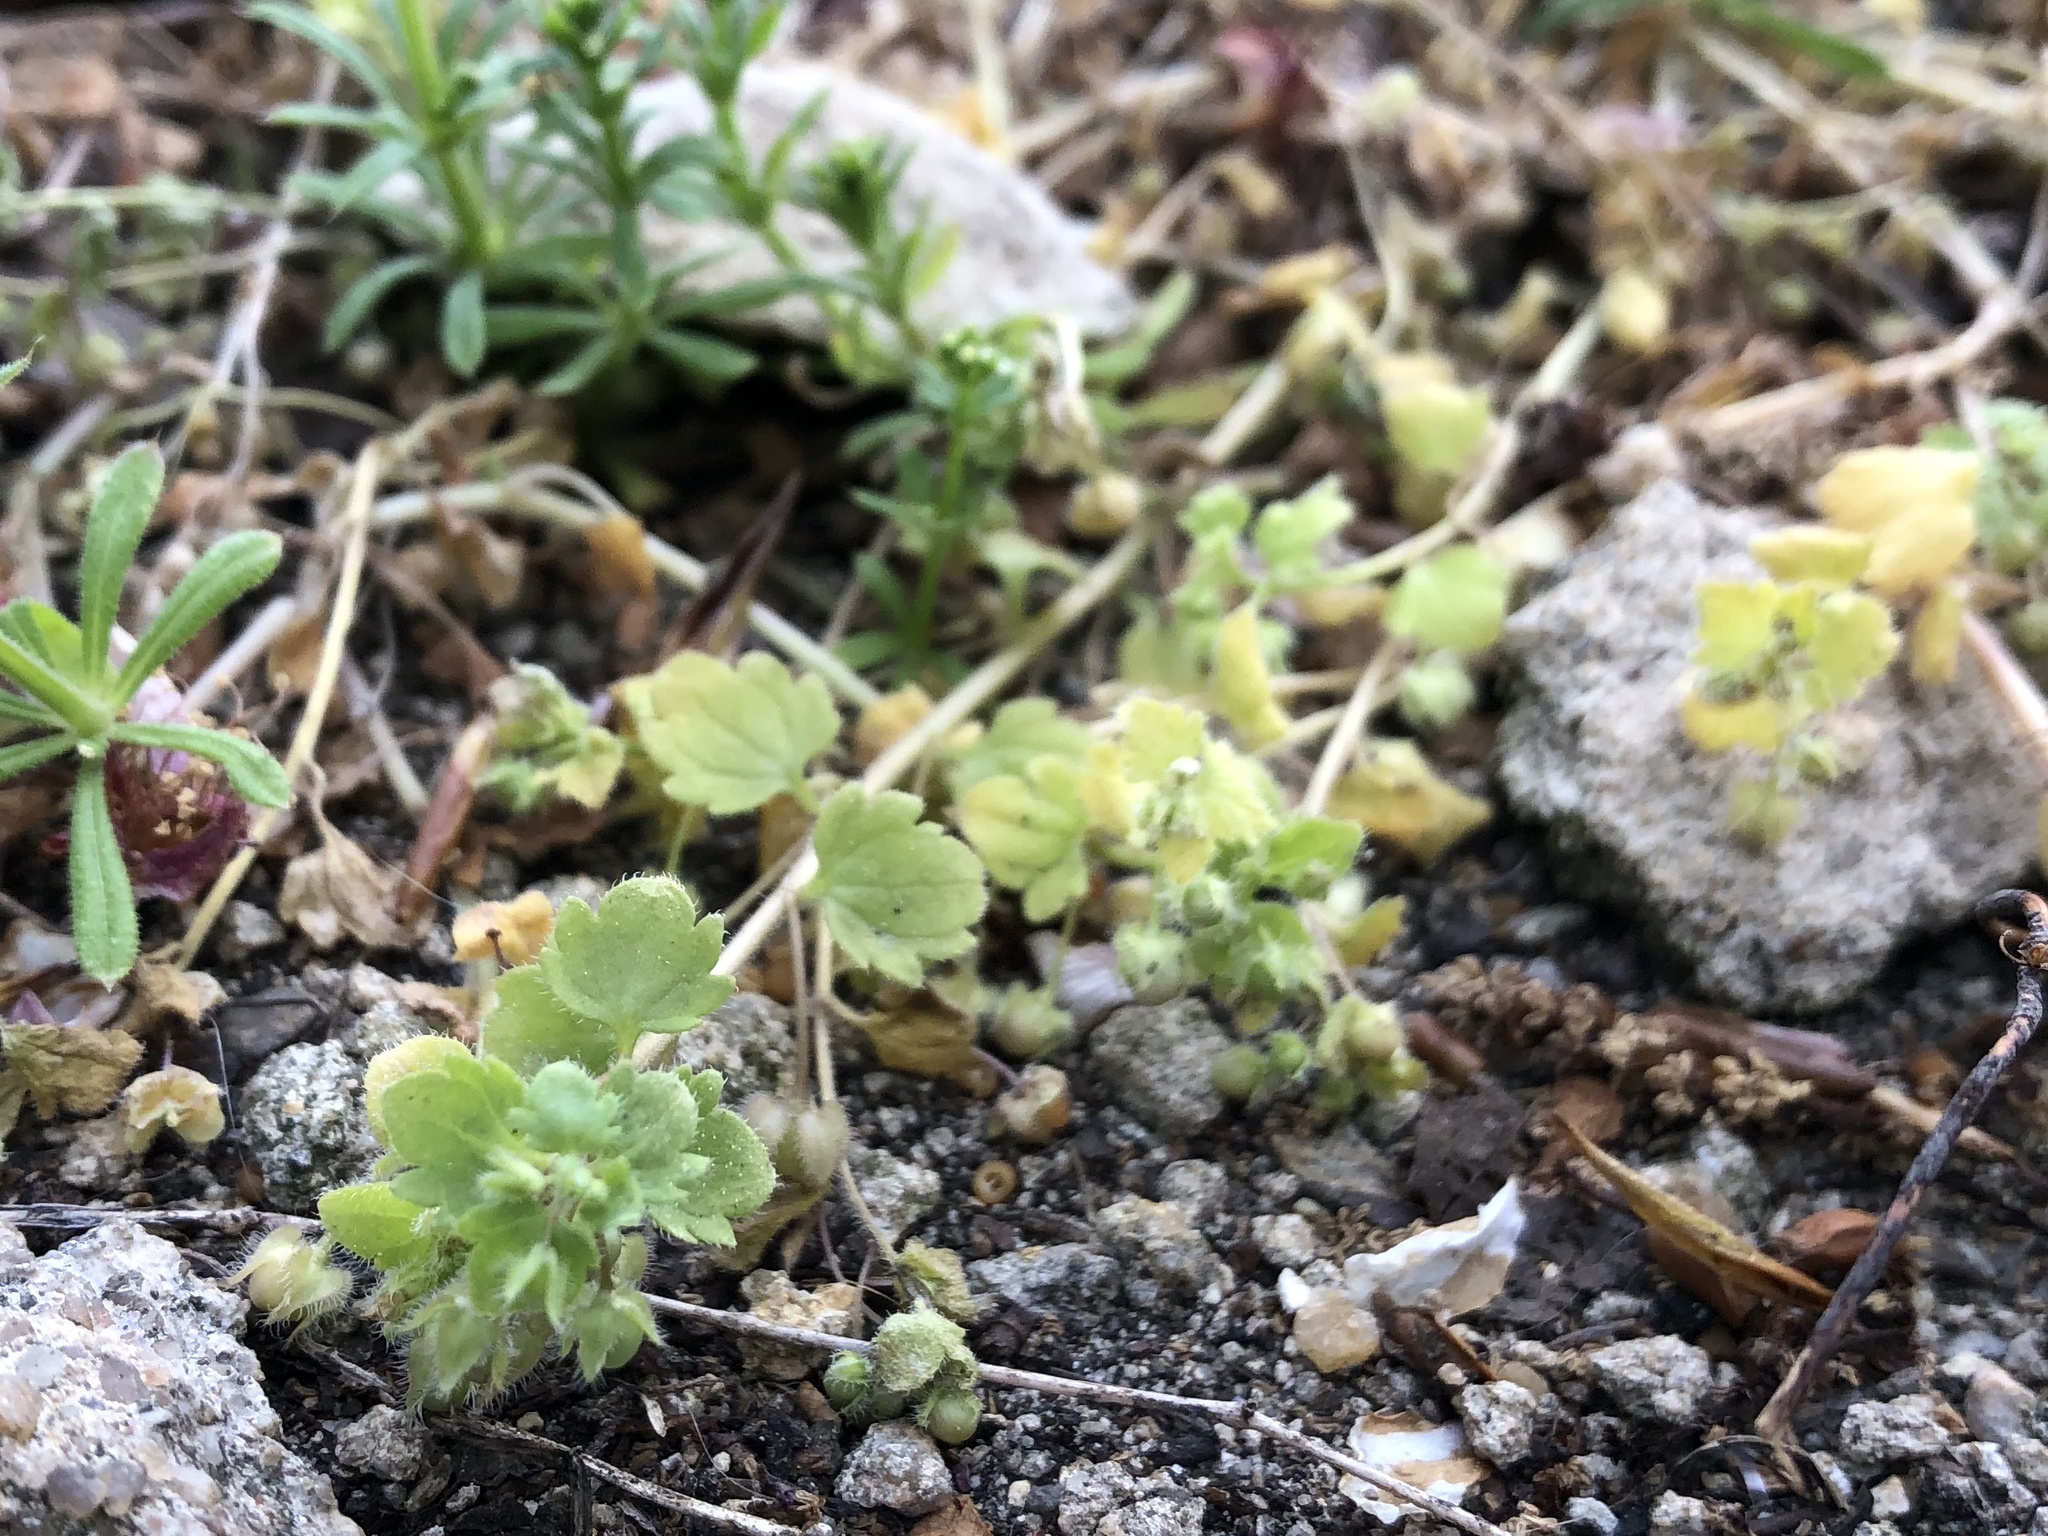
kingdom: Plantae
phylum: Tracheophyta
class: Magnoliopsida
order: Lamiales
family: Plantaginaceae
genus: Veronica
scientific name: Veronica sublobata
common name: False ivy-leaved speedwell
